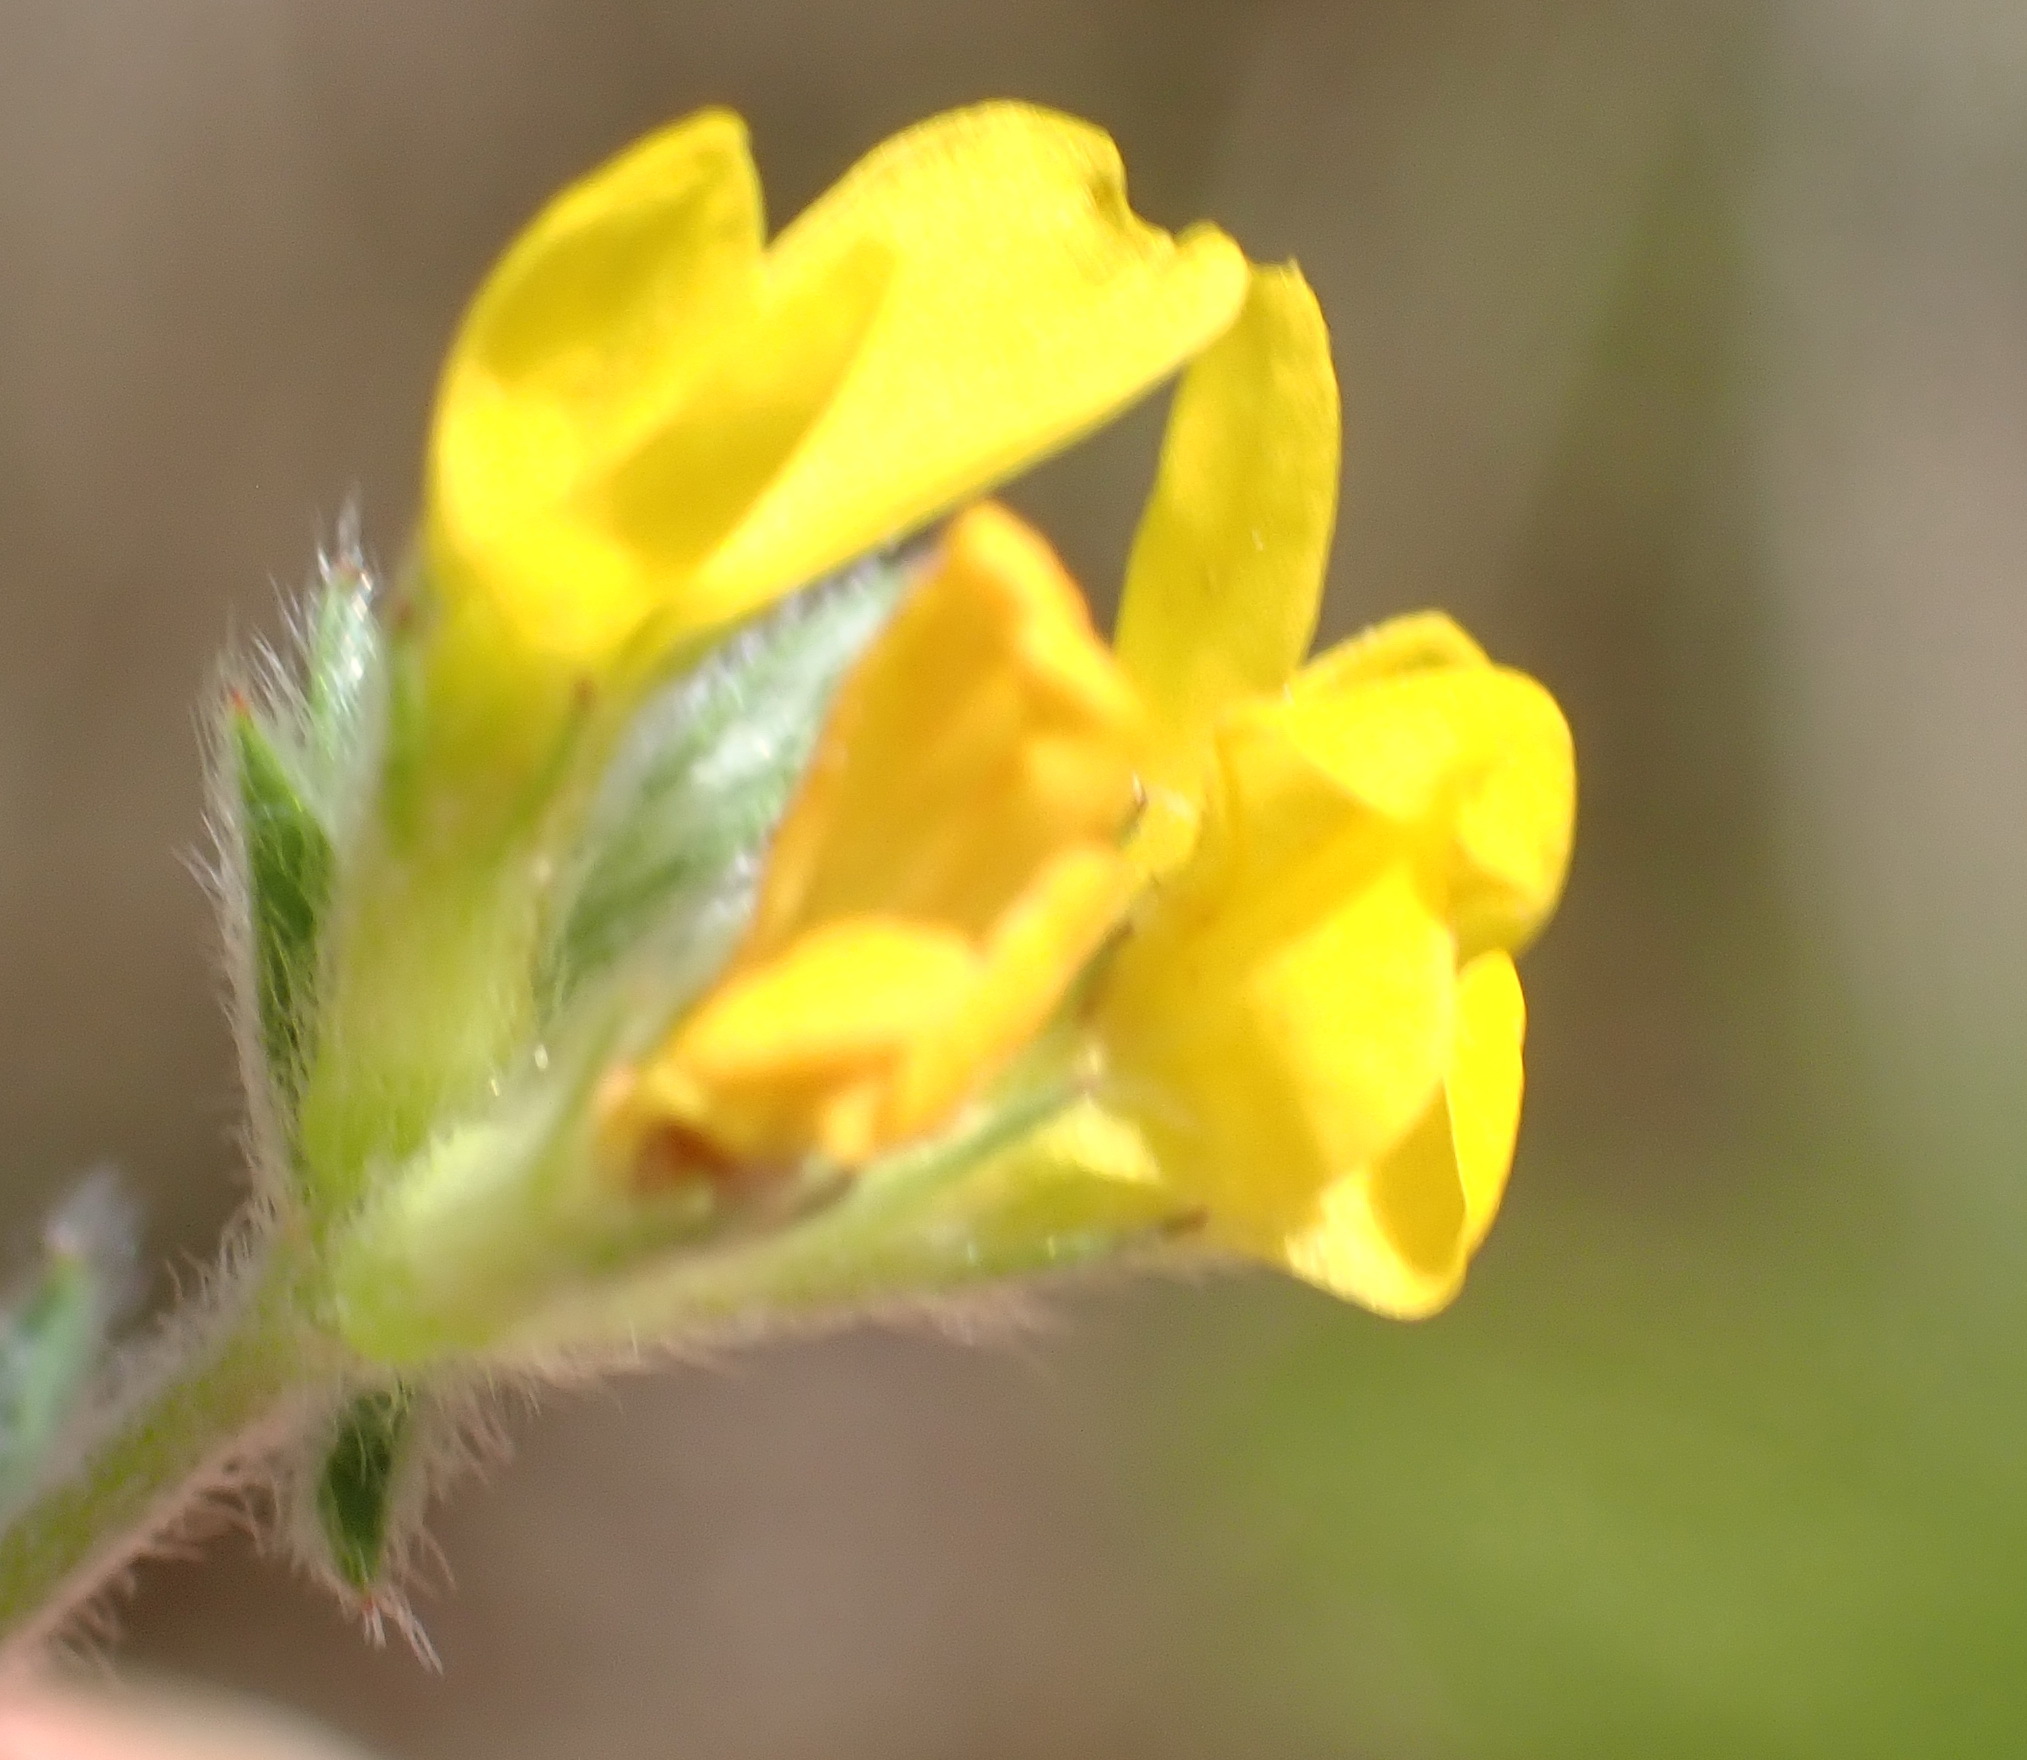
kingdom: Plantae
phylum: Tracheophyta
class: Magnoliopsida
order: Fabales
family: Fabaceae
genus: Ornithopus
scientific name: Ornithopus compressus
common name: Yellow serradella
